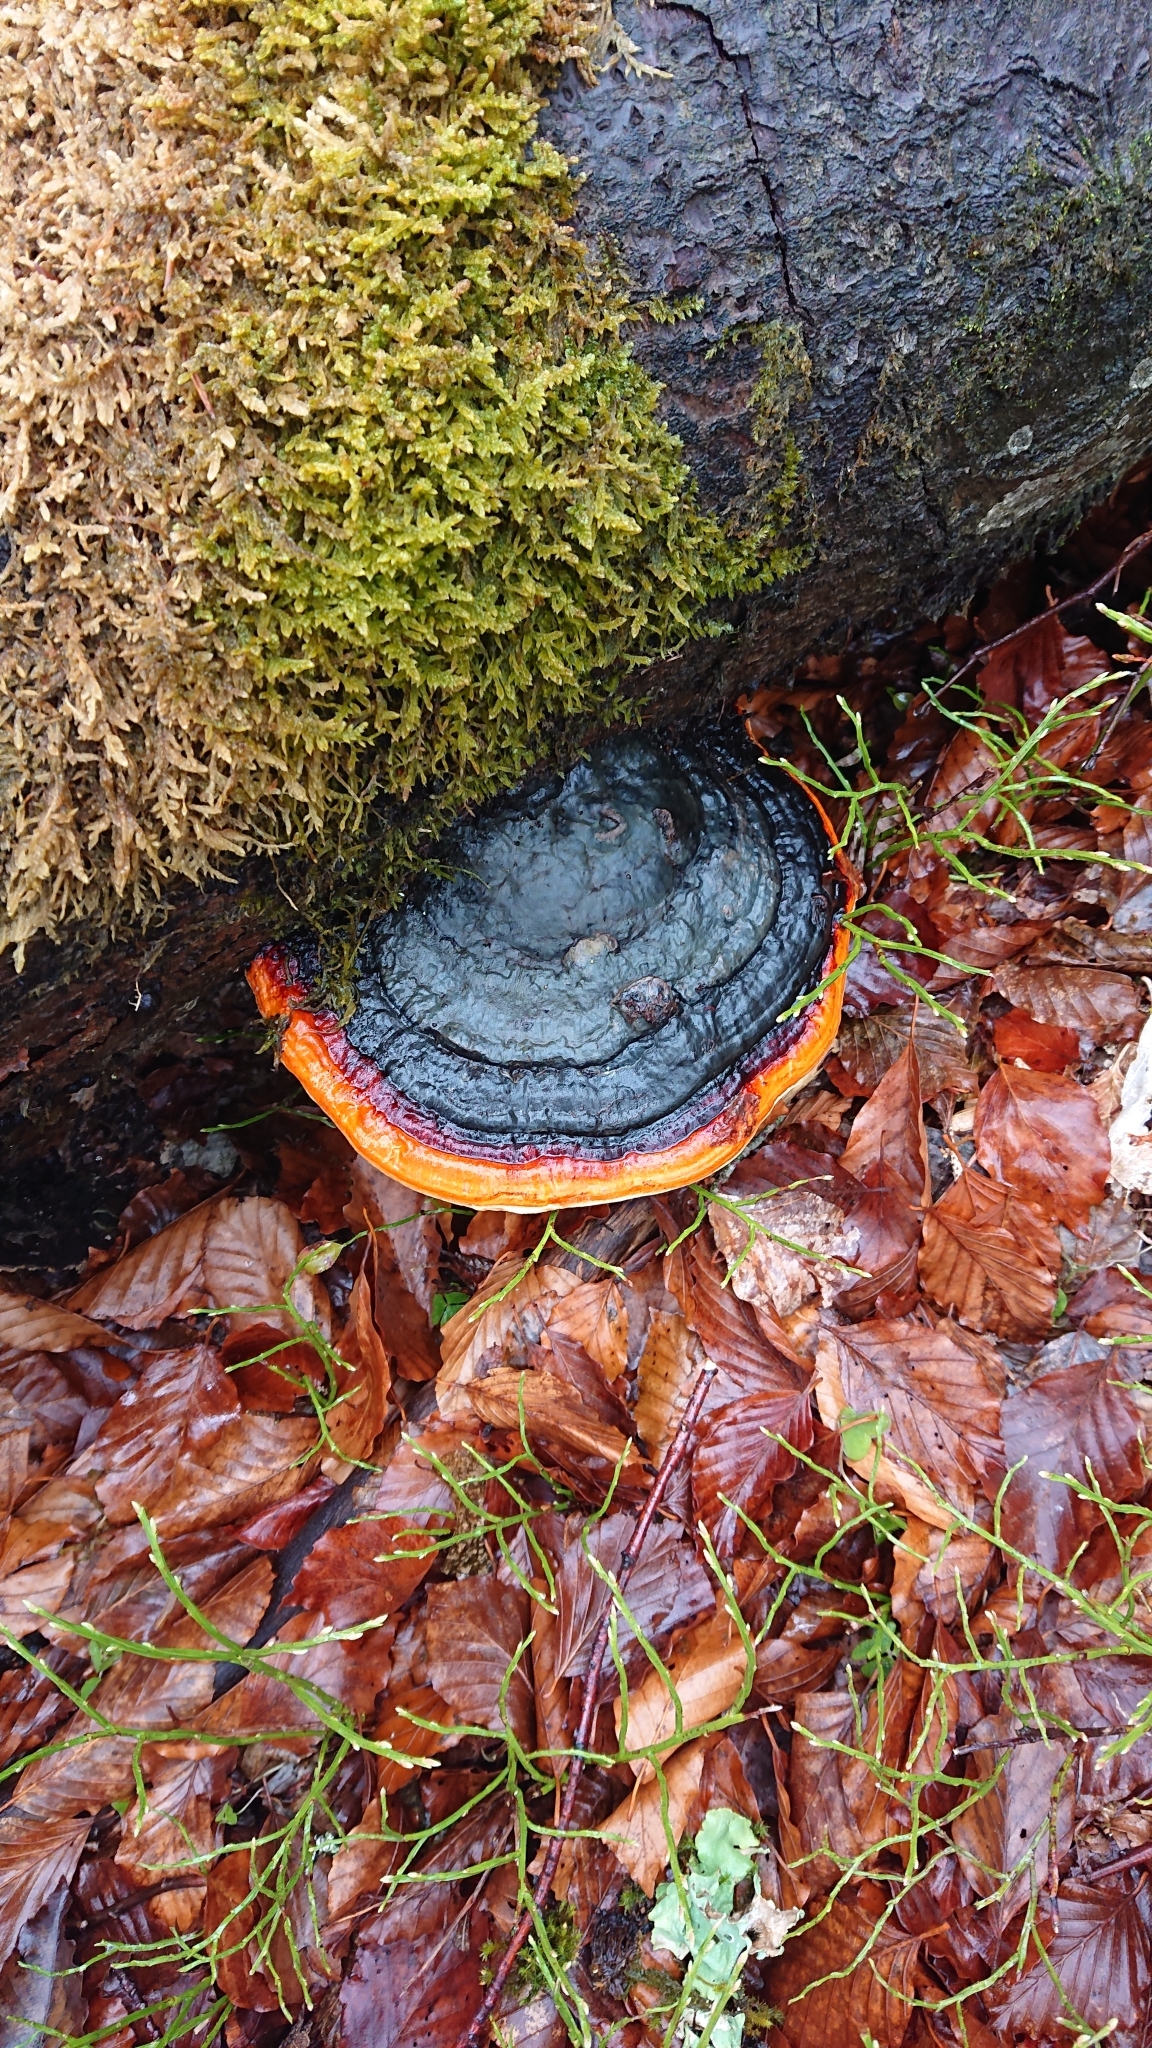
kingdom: Fungi
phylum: Basidiomycota
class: Agaricomycetes
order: Polyporales
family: Fomitopsidaceae
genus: Fomitopsis
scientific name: Fomitopsis pinicola
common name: Red-belted bracket
